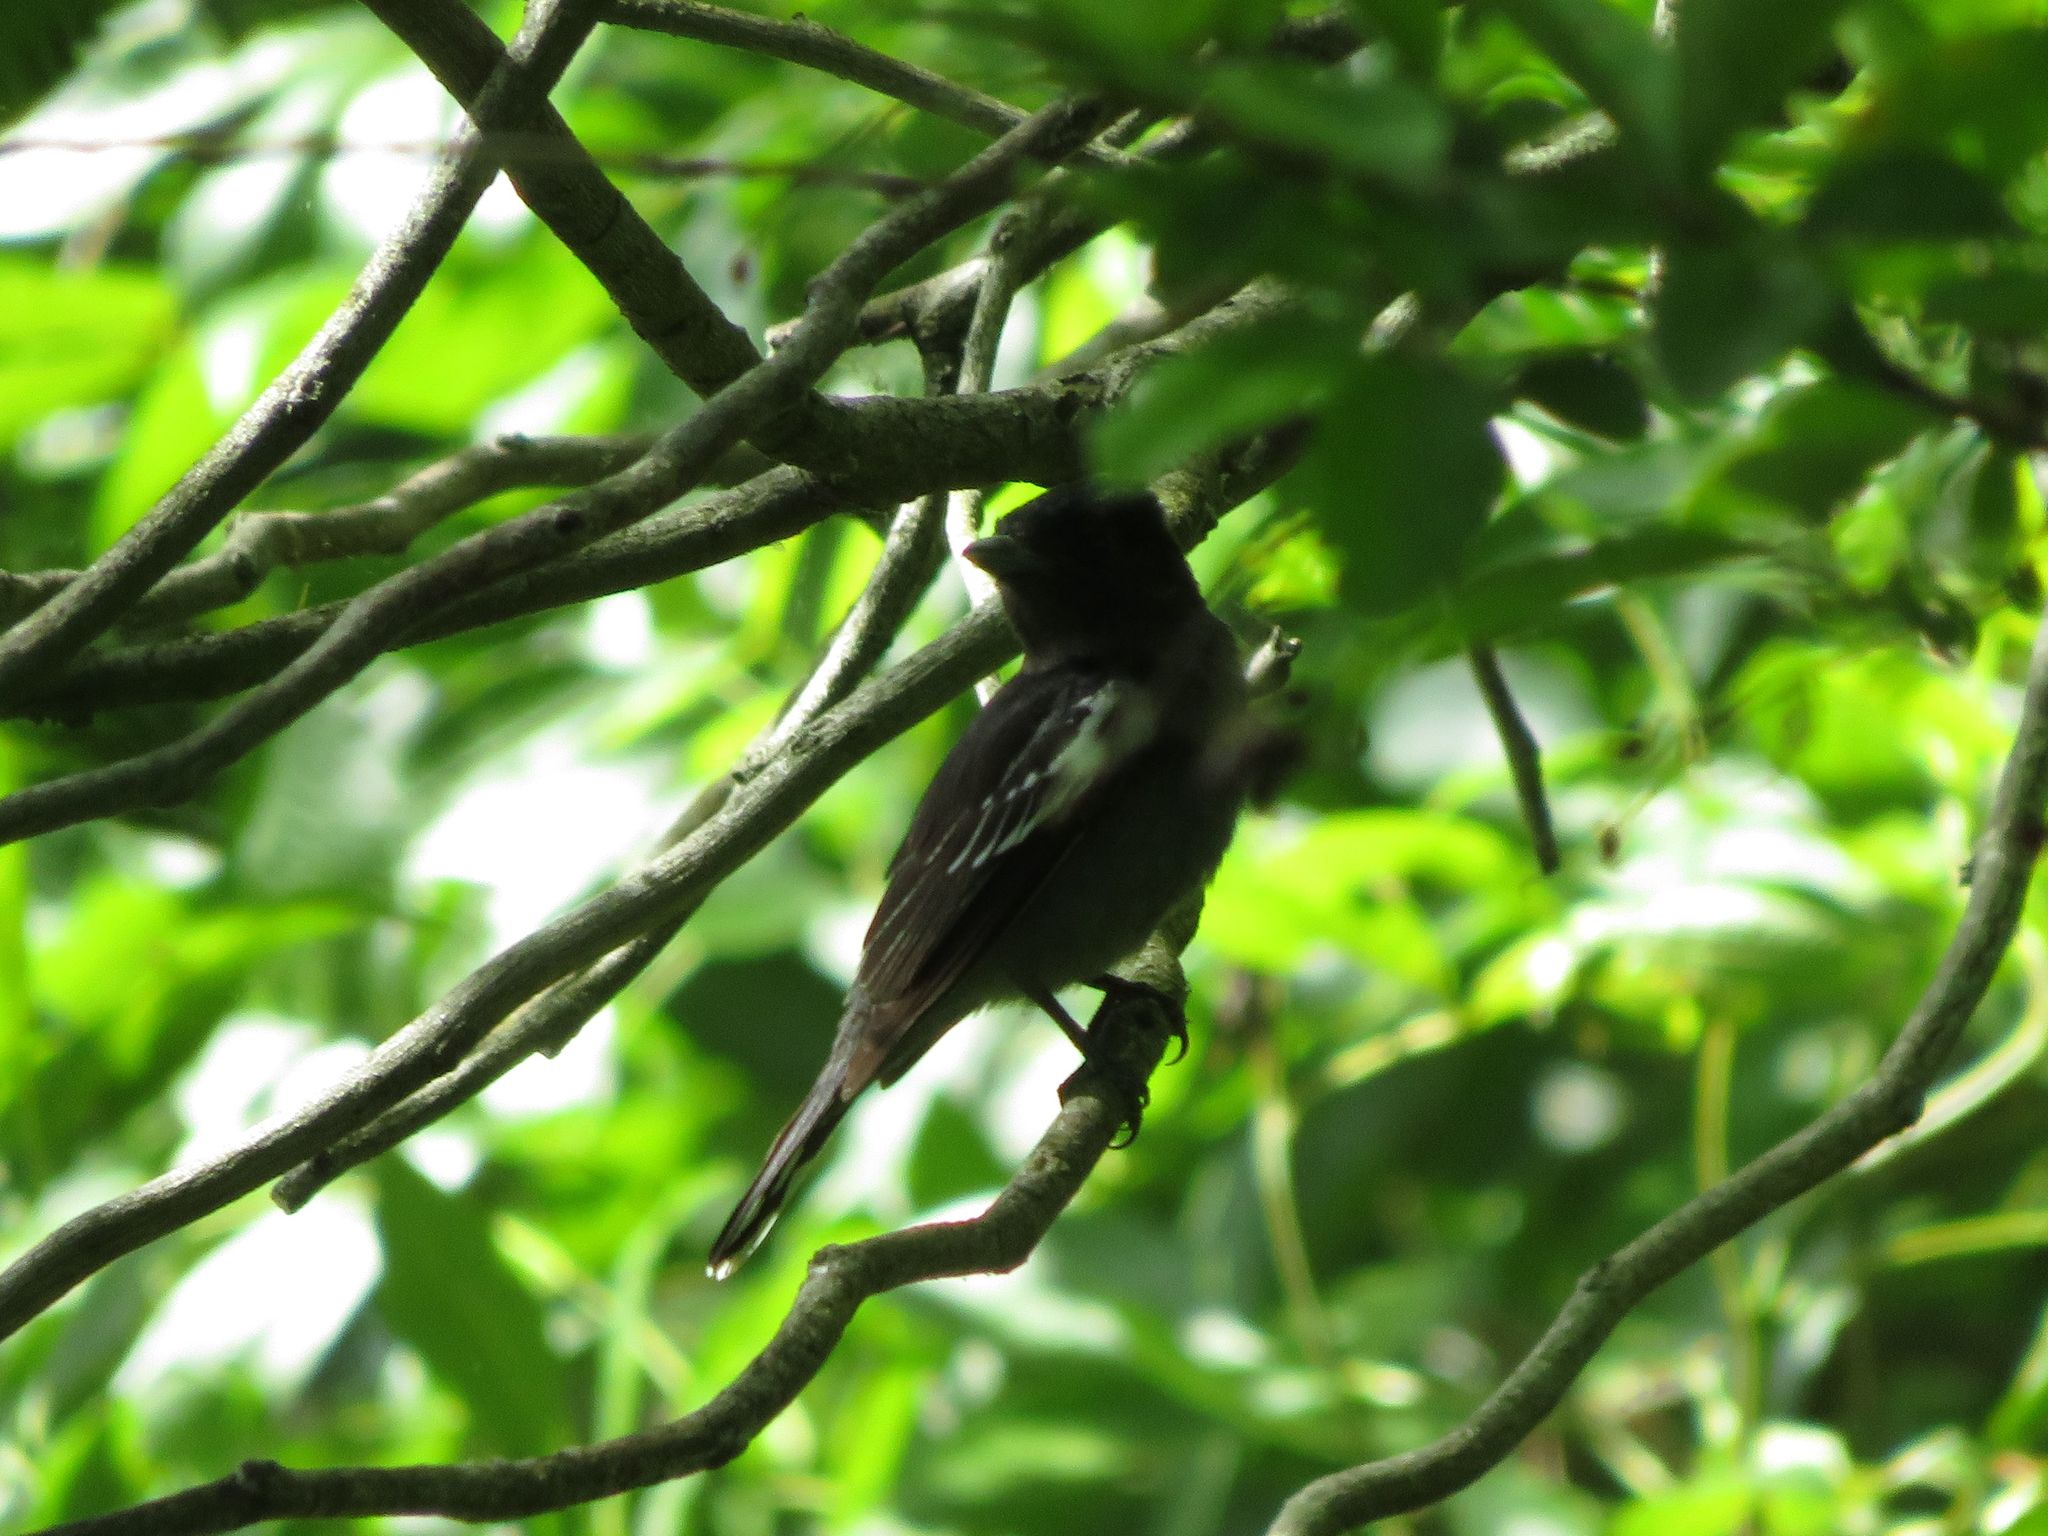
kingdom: Animalia
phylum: Chordata
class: Aves
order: Passeriformes
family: Cotingidae
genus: Pachyramphus
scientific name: Pachyramphus polychopterus
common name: White-winged becard
